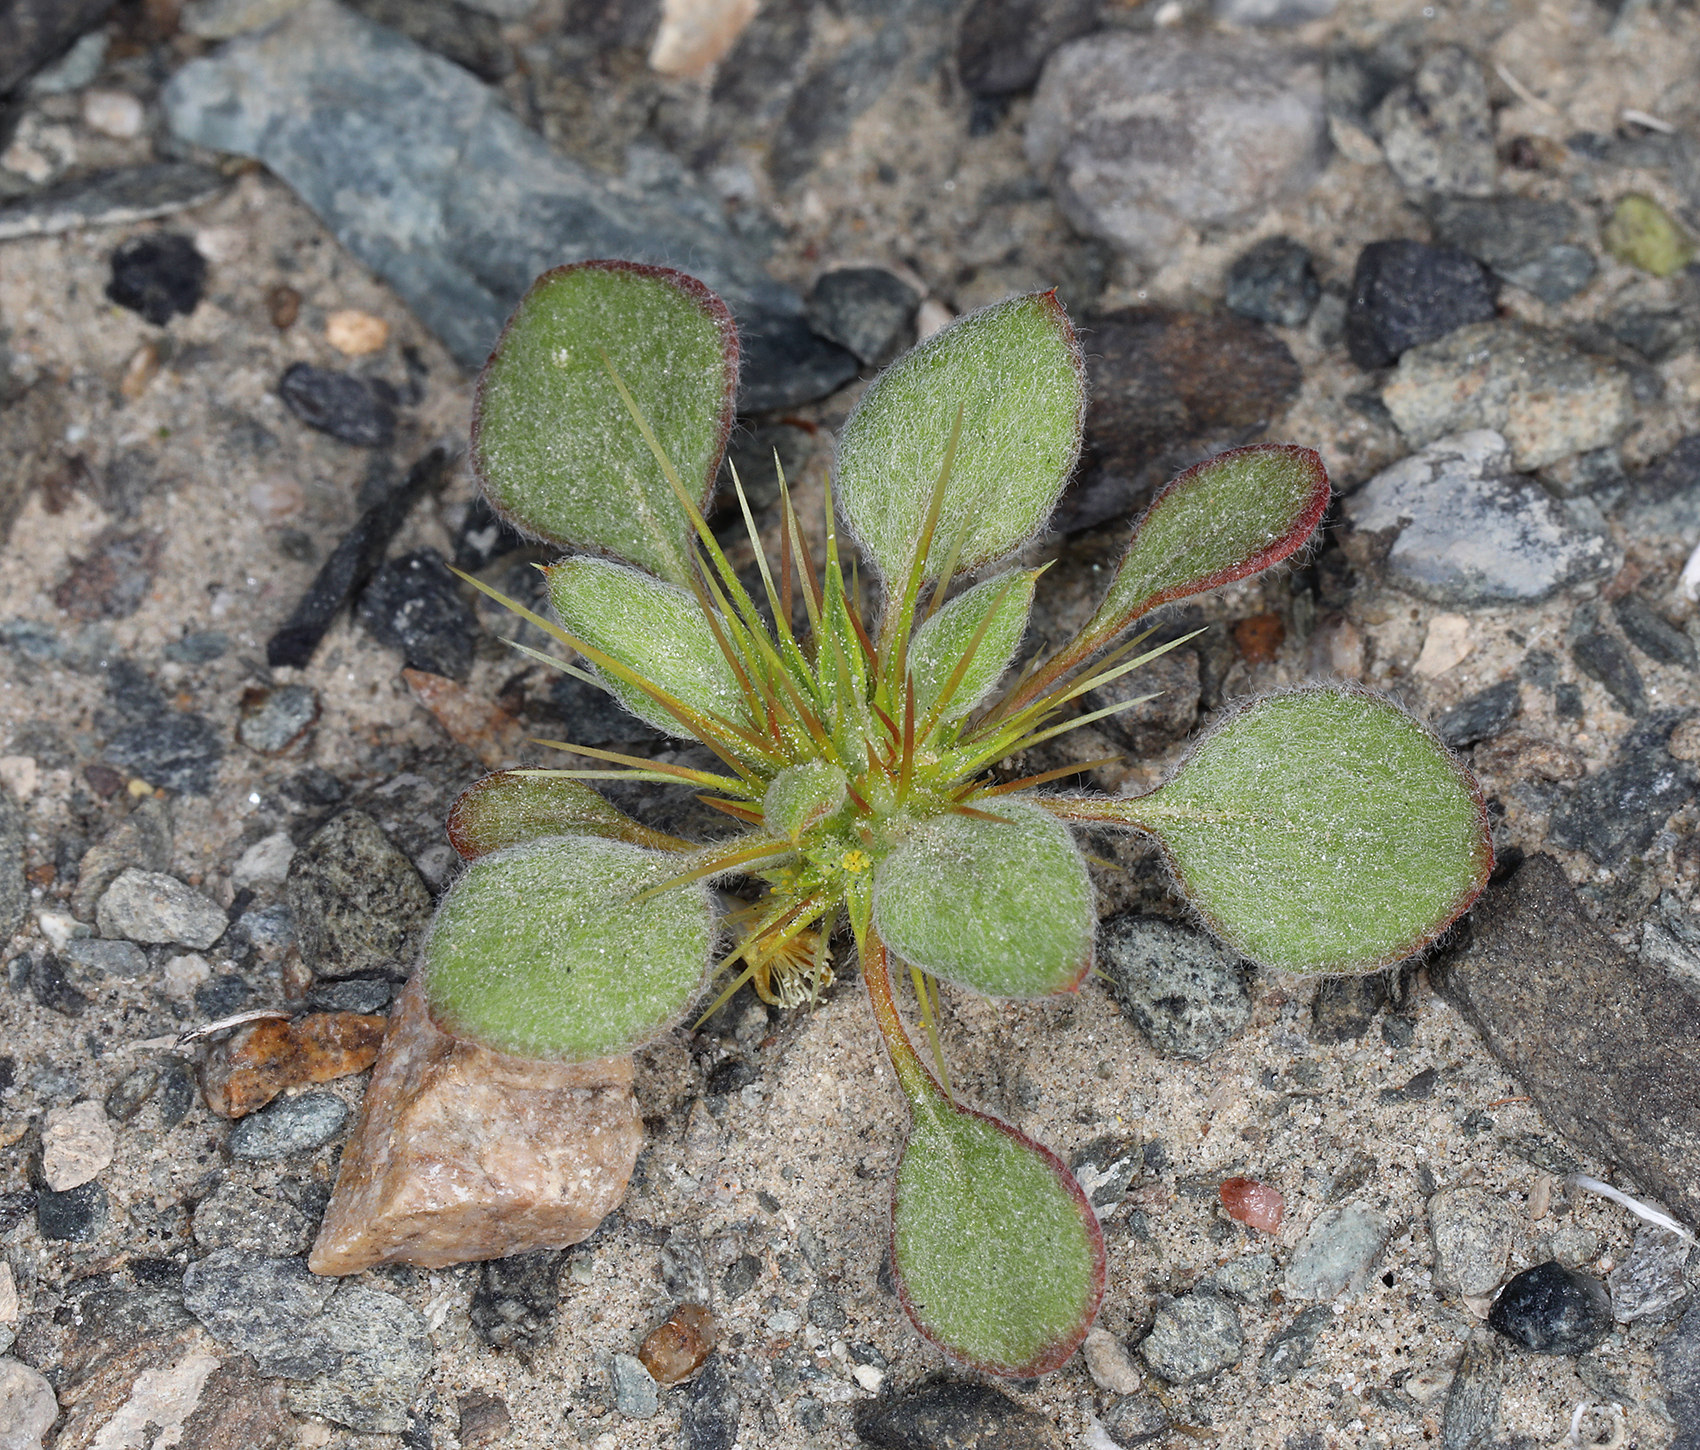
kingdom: Plantae
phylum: Tracheophyta
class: Magnoliopsida
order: Caryophyllales
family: Polygonaceae
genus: Chorizanthe
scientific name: Chorizanthe rigida
